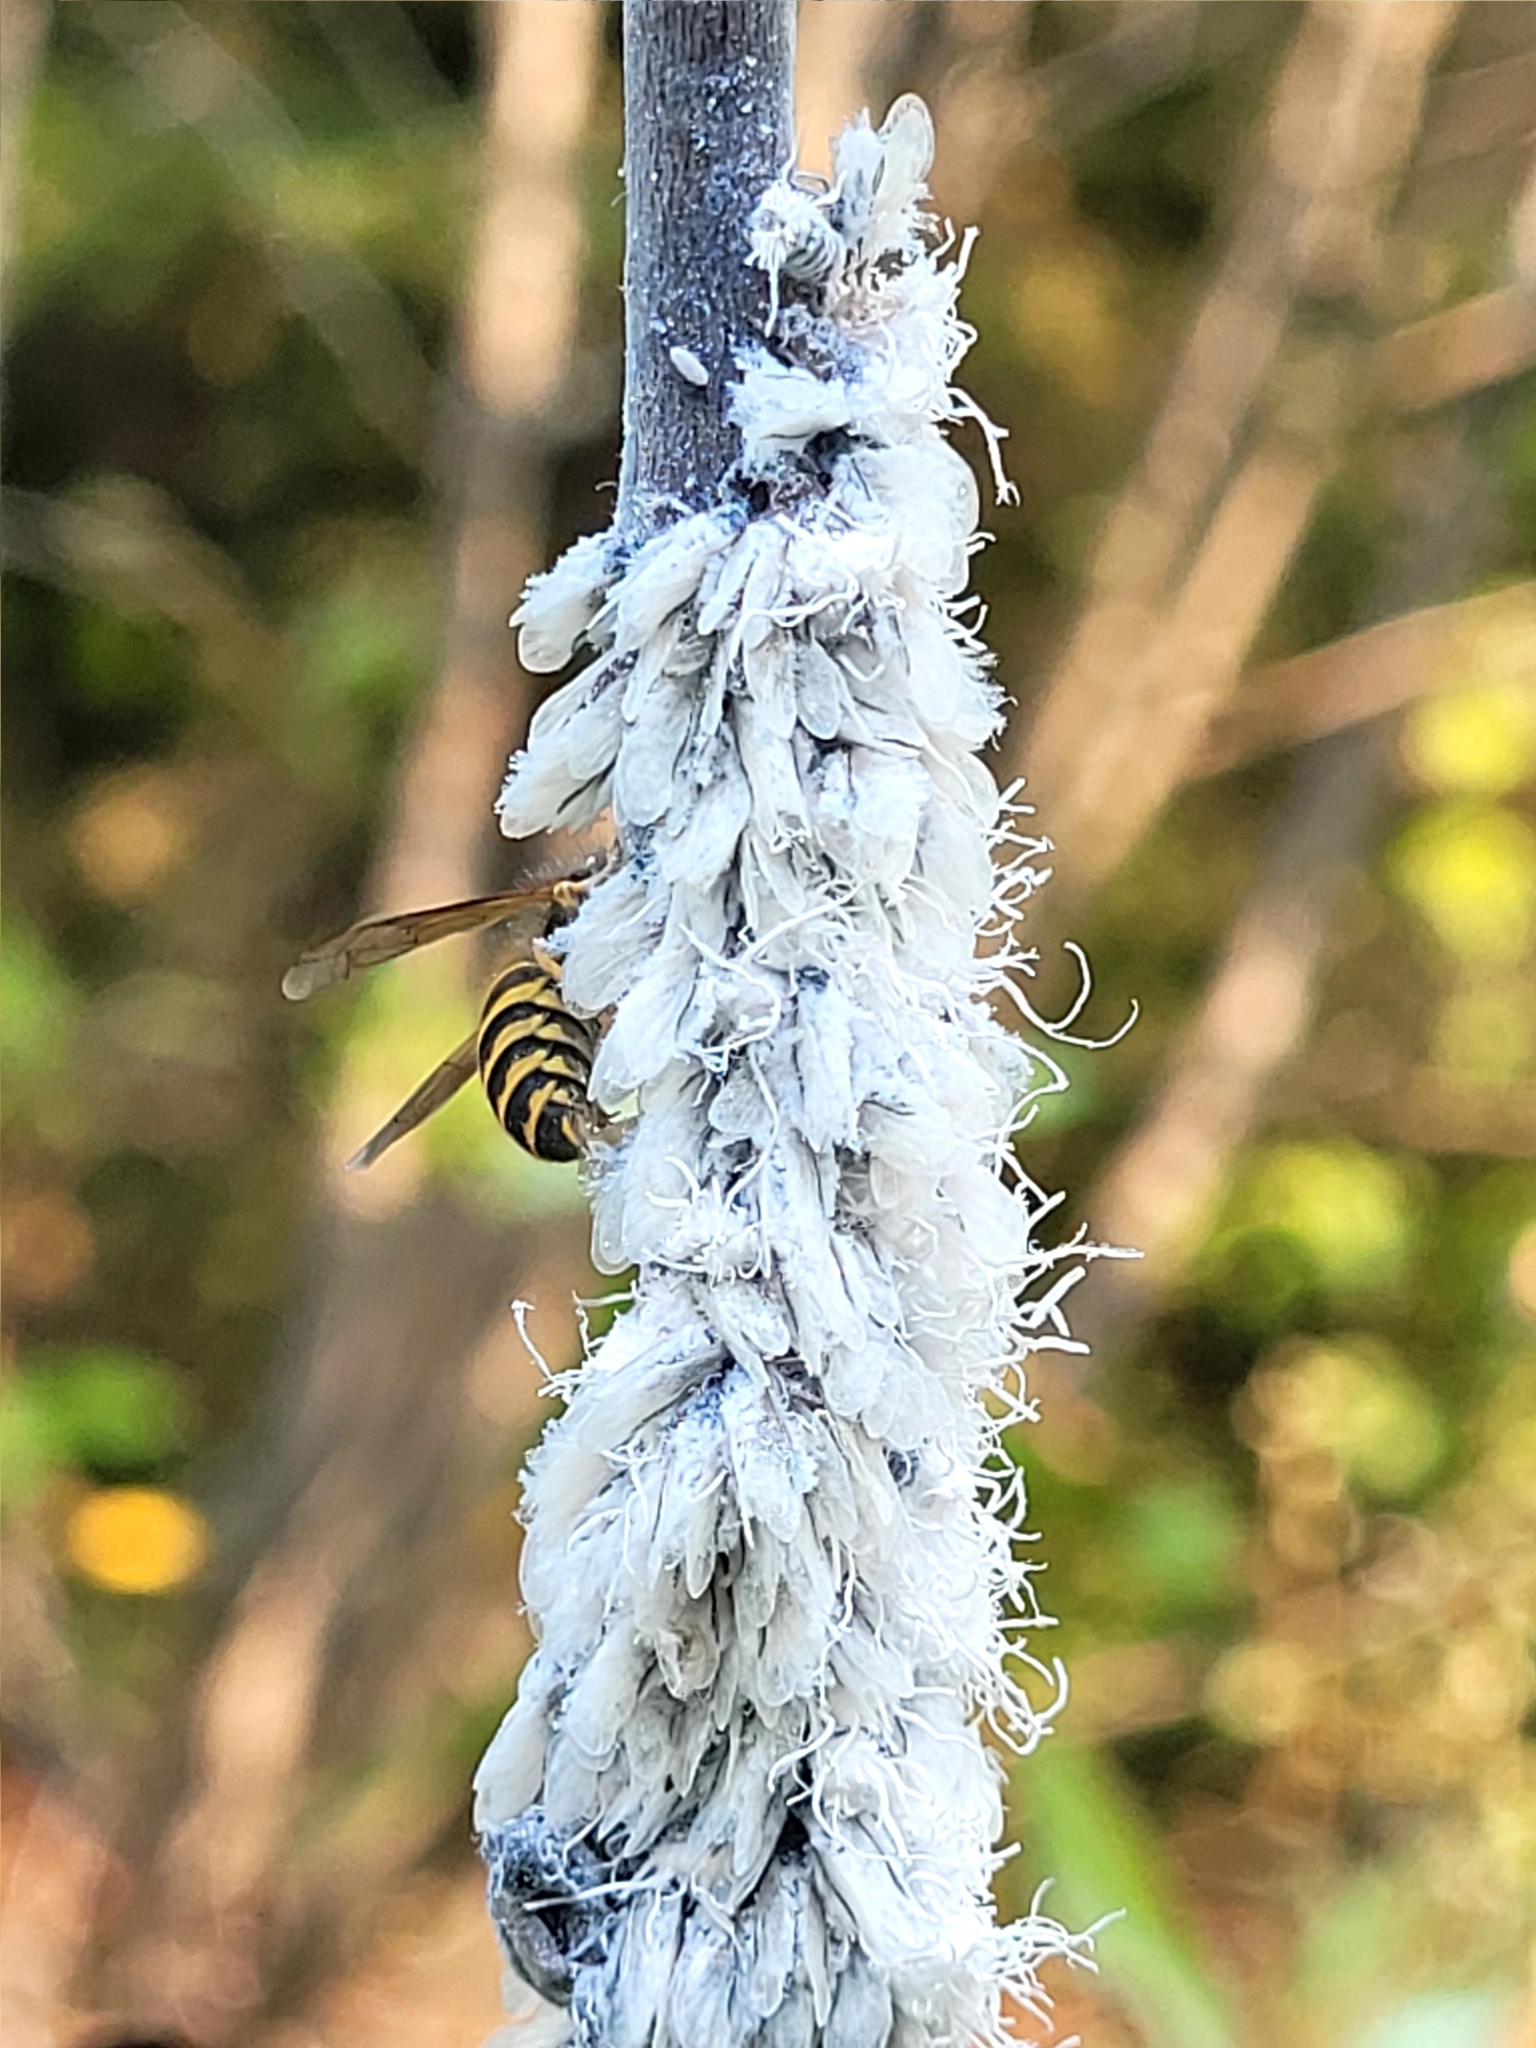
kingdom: Animalia
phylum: Arthropoda
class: Insecta
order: Hymenoptera
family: Vespidae
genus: Vespula
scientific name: Vespula alascensis
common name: Alaska yellowjacket
